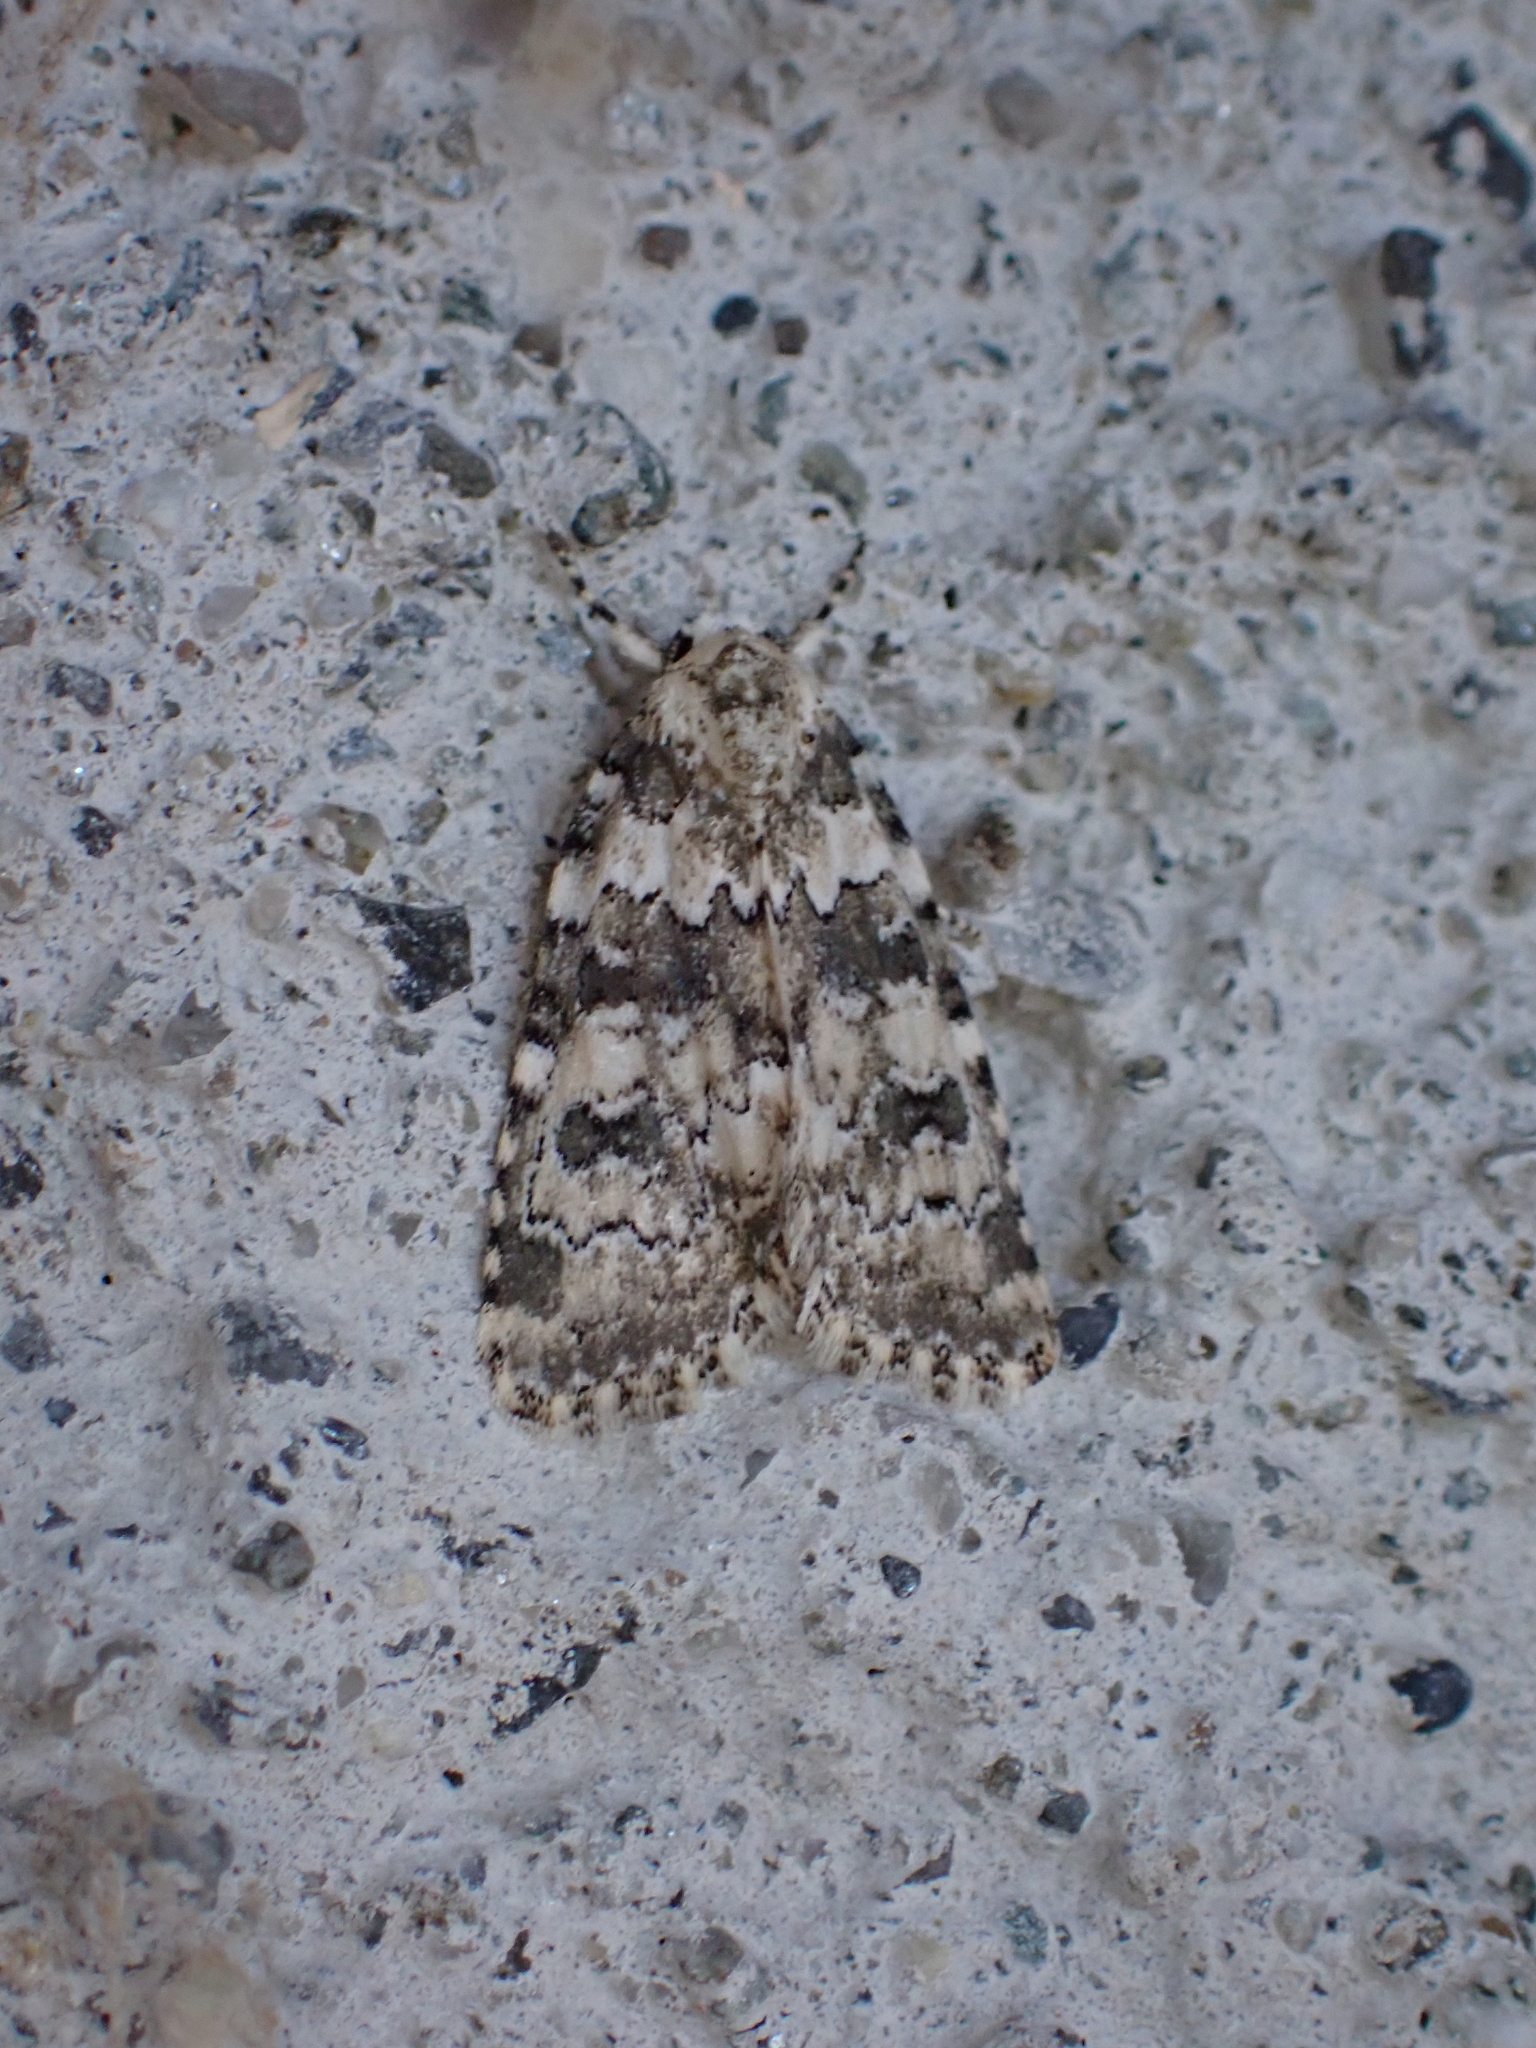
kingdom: Animalia
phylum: Arthropoda
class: Insecta
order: Lepidoptera
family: Noctuidae
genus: Bryophila
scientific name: Bryophila domestica
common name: Marbled beauty
